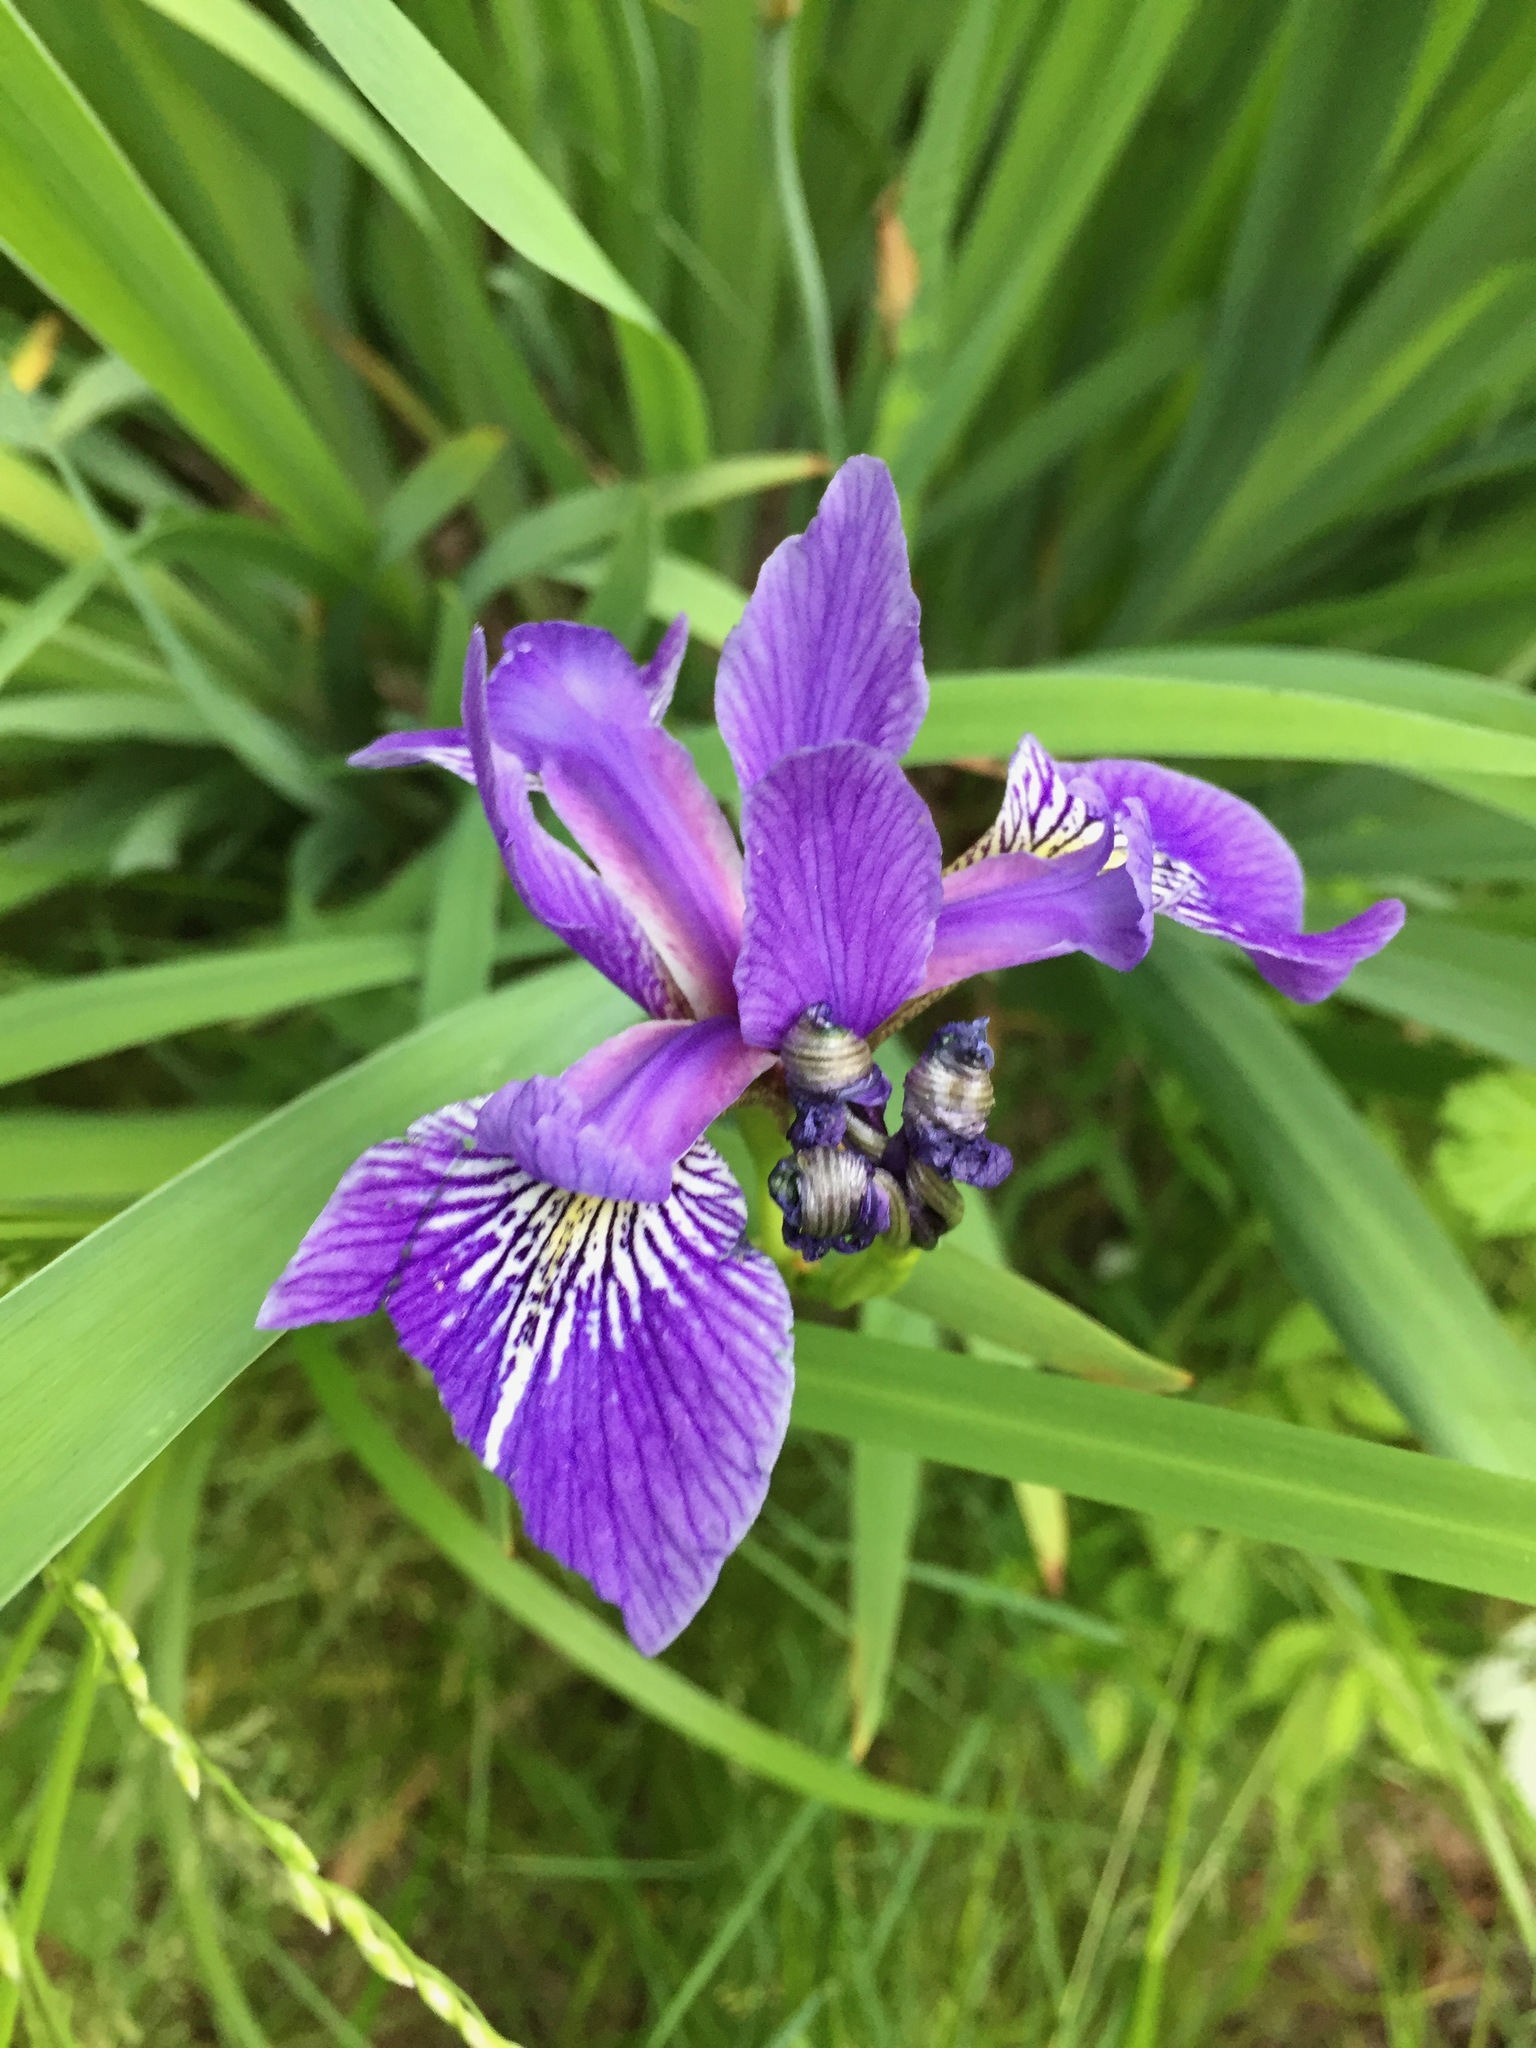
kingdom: Plantae
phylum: Tracheophyta
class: Liliopsida
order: Asparagales
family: Iridaceae
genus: Iris
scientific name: Iris versicolor
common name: Purple iris
